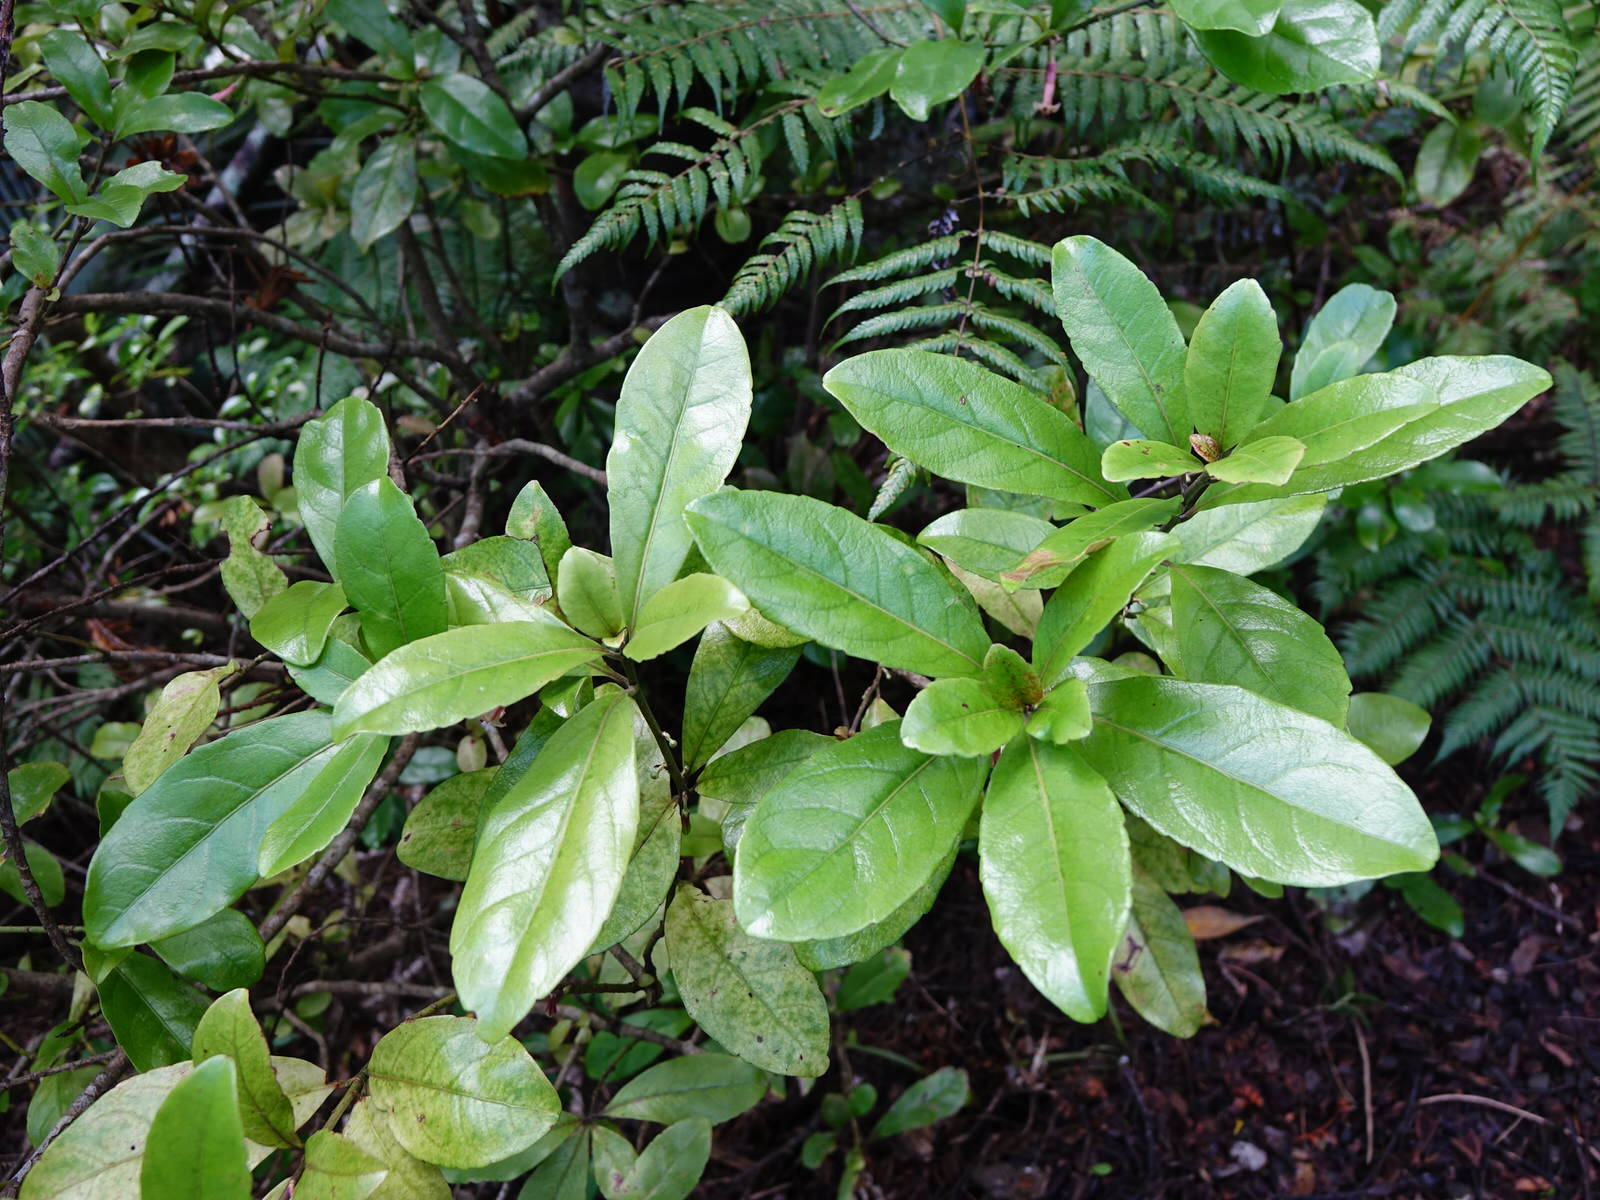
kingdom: Plantae
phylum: Tracheophyta
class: Magnoliopsida
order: Asterales
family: Alseuosmiaceae
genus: Alseuosmia
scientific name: Alseuosmia macrophylla
